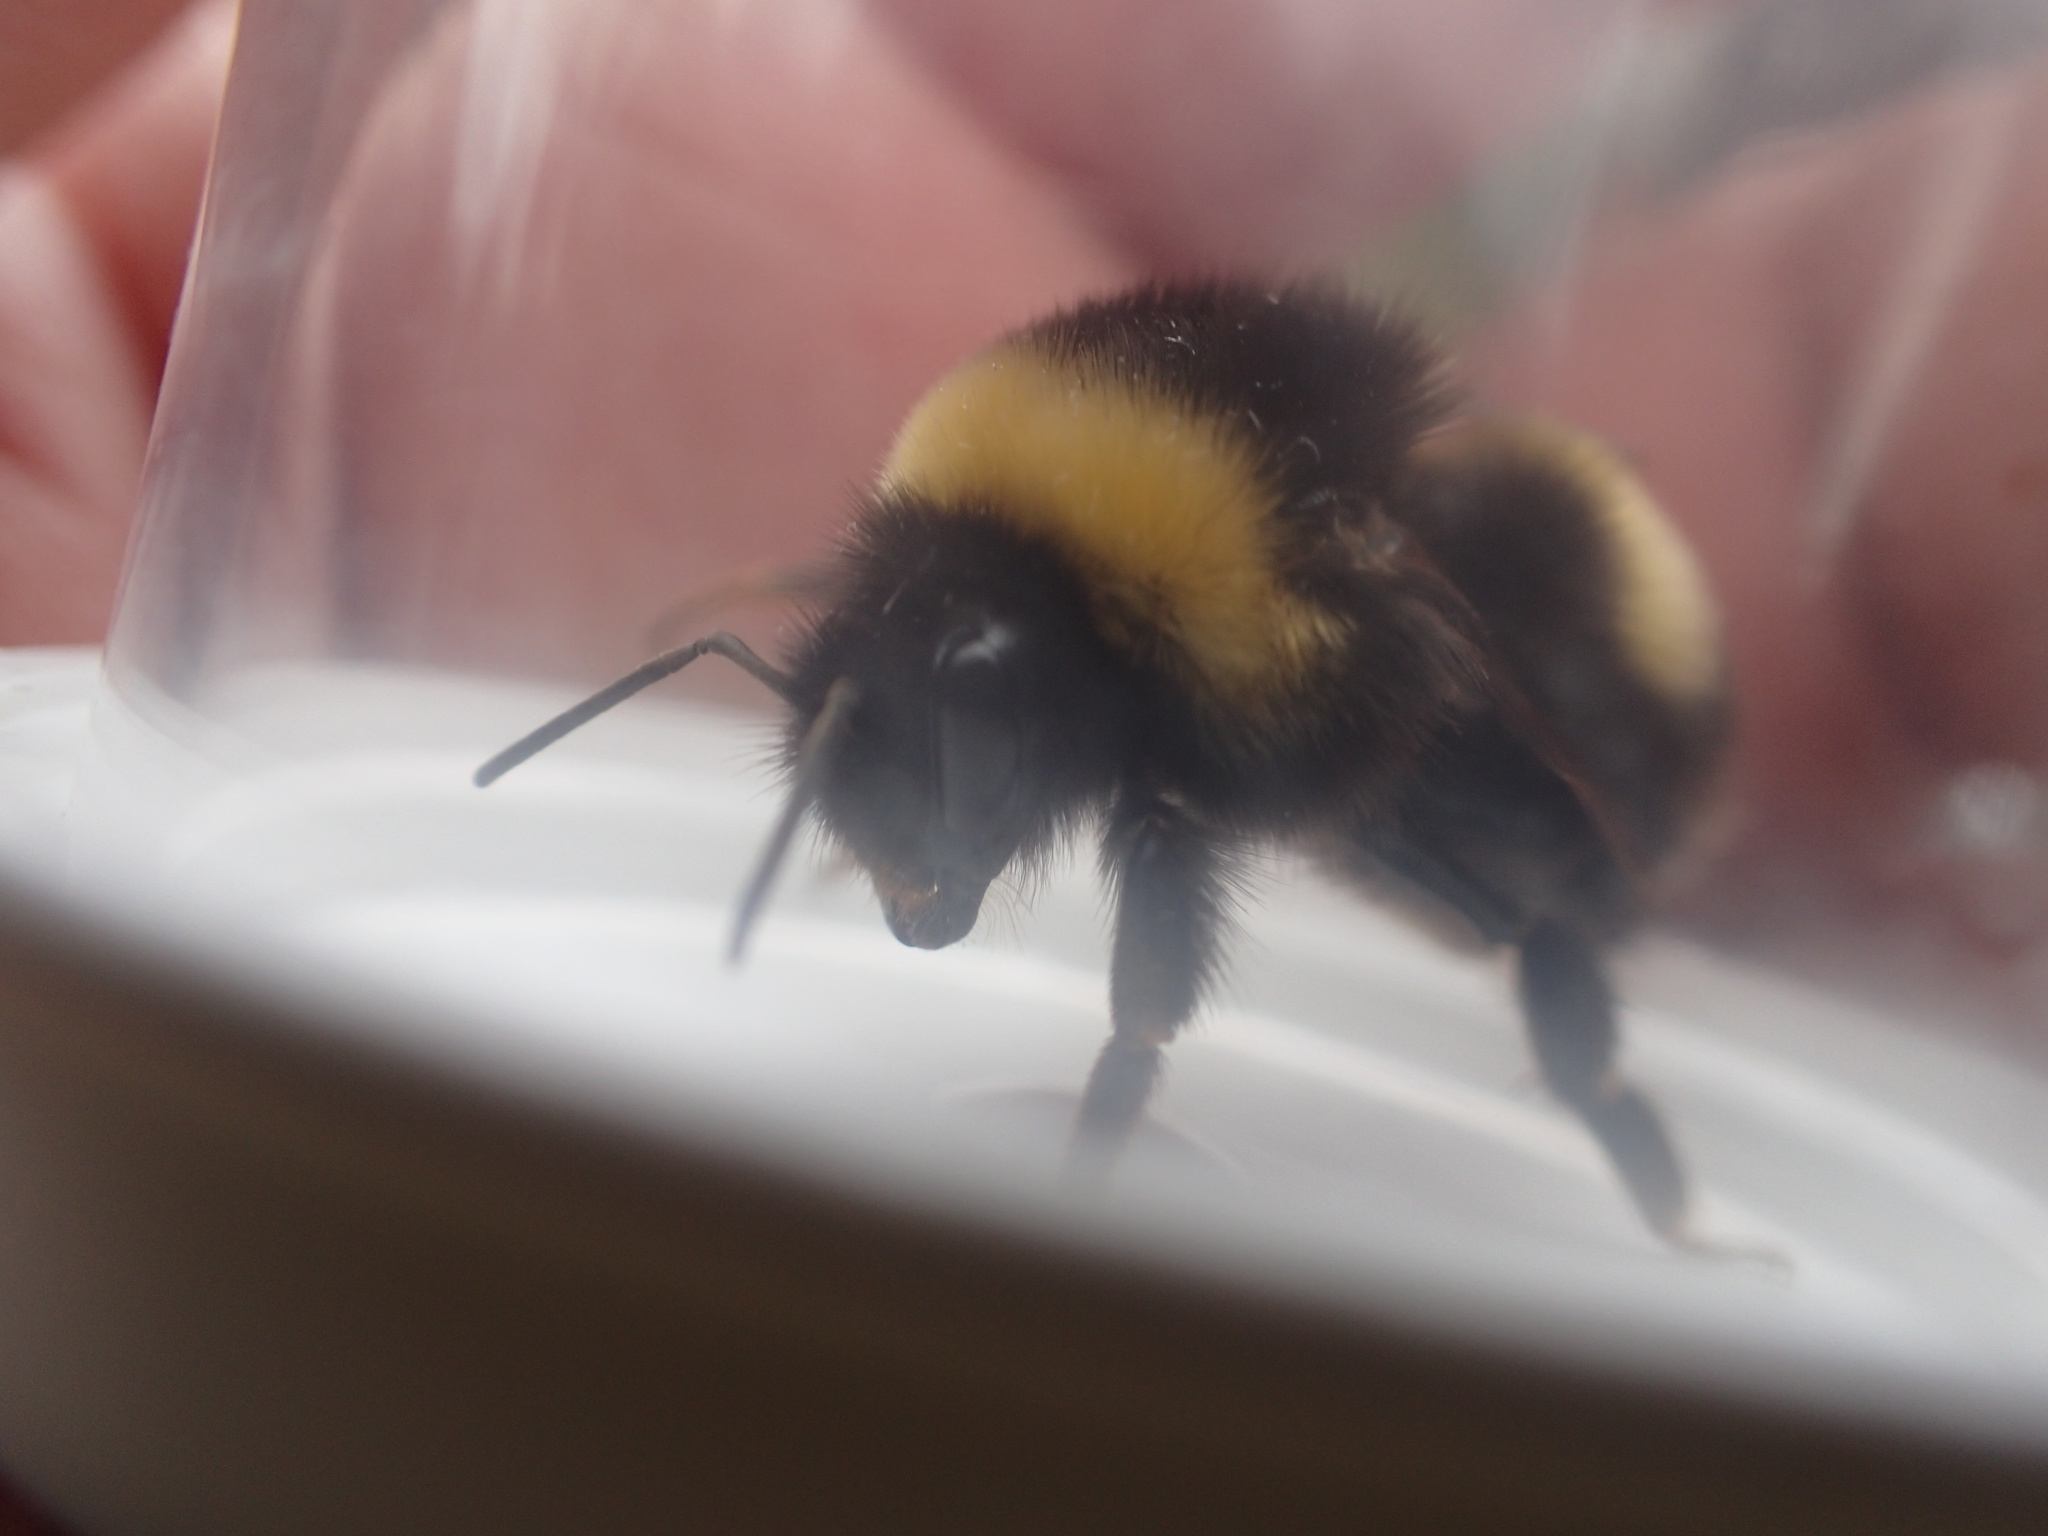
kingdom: Animalia
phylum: Arthropoda
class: Insecta
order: Hymenoptera
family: Apidae
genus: Bombus
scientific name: Bombus cryptarum
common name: Cryptic bumblebee
